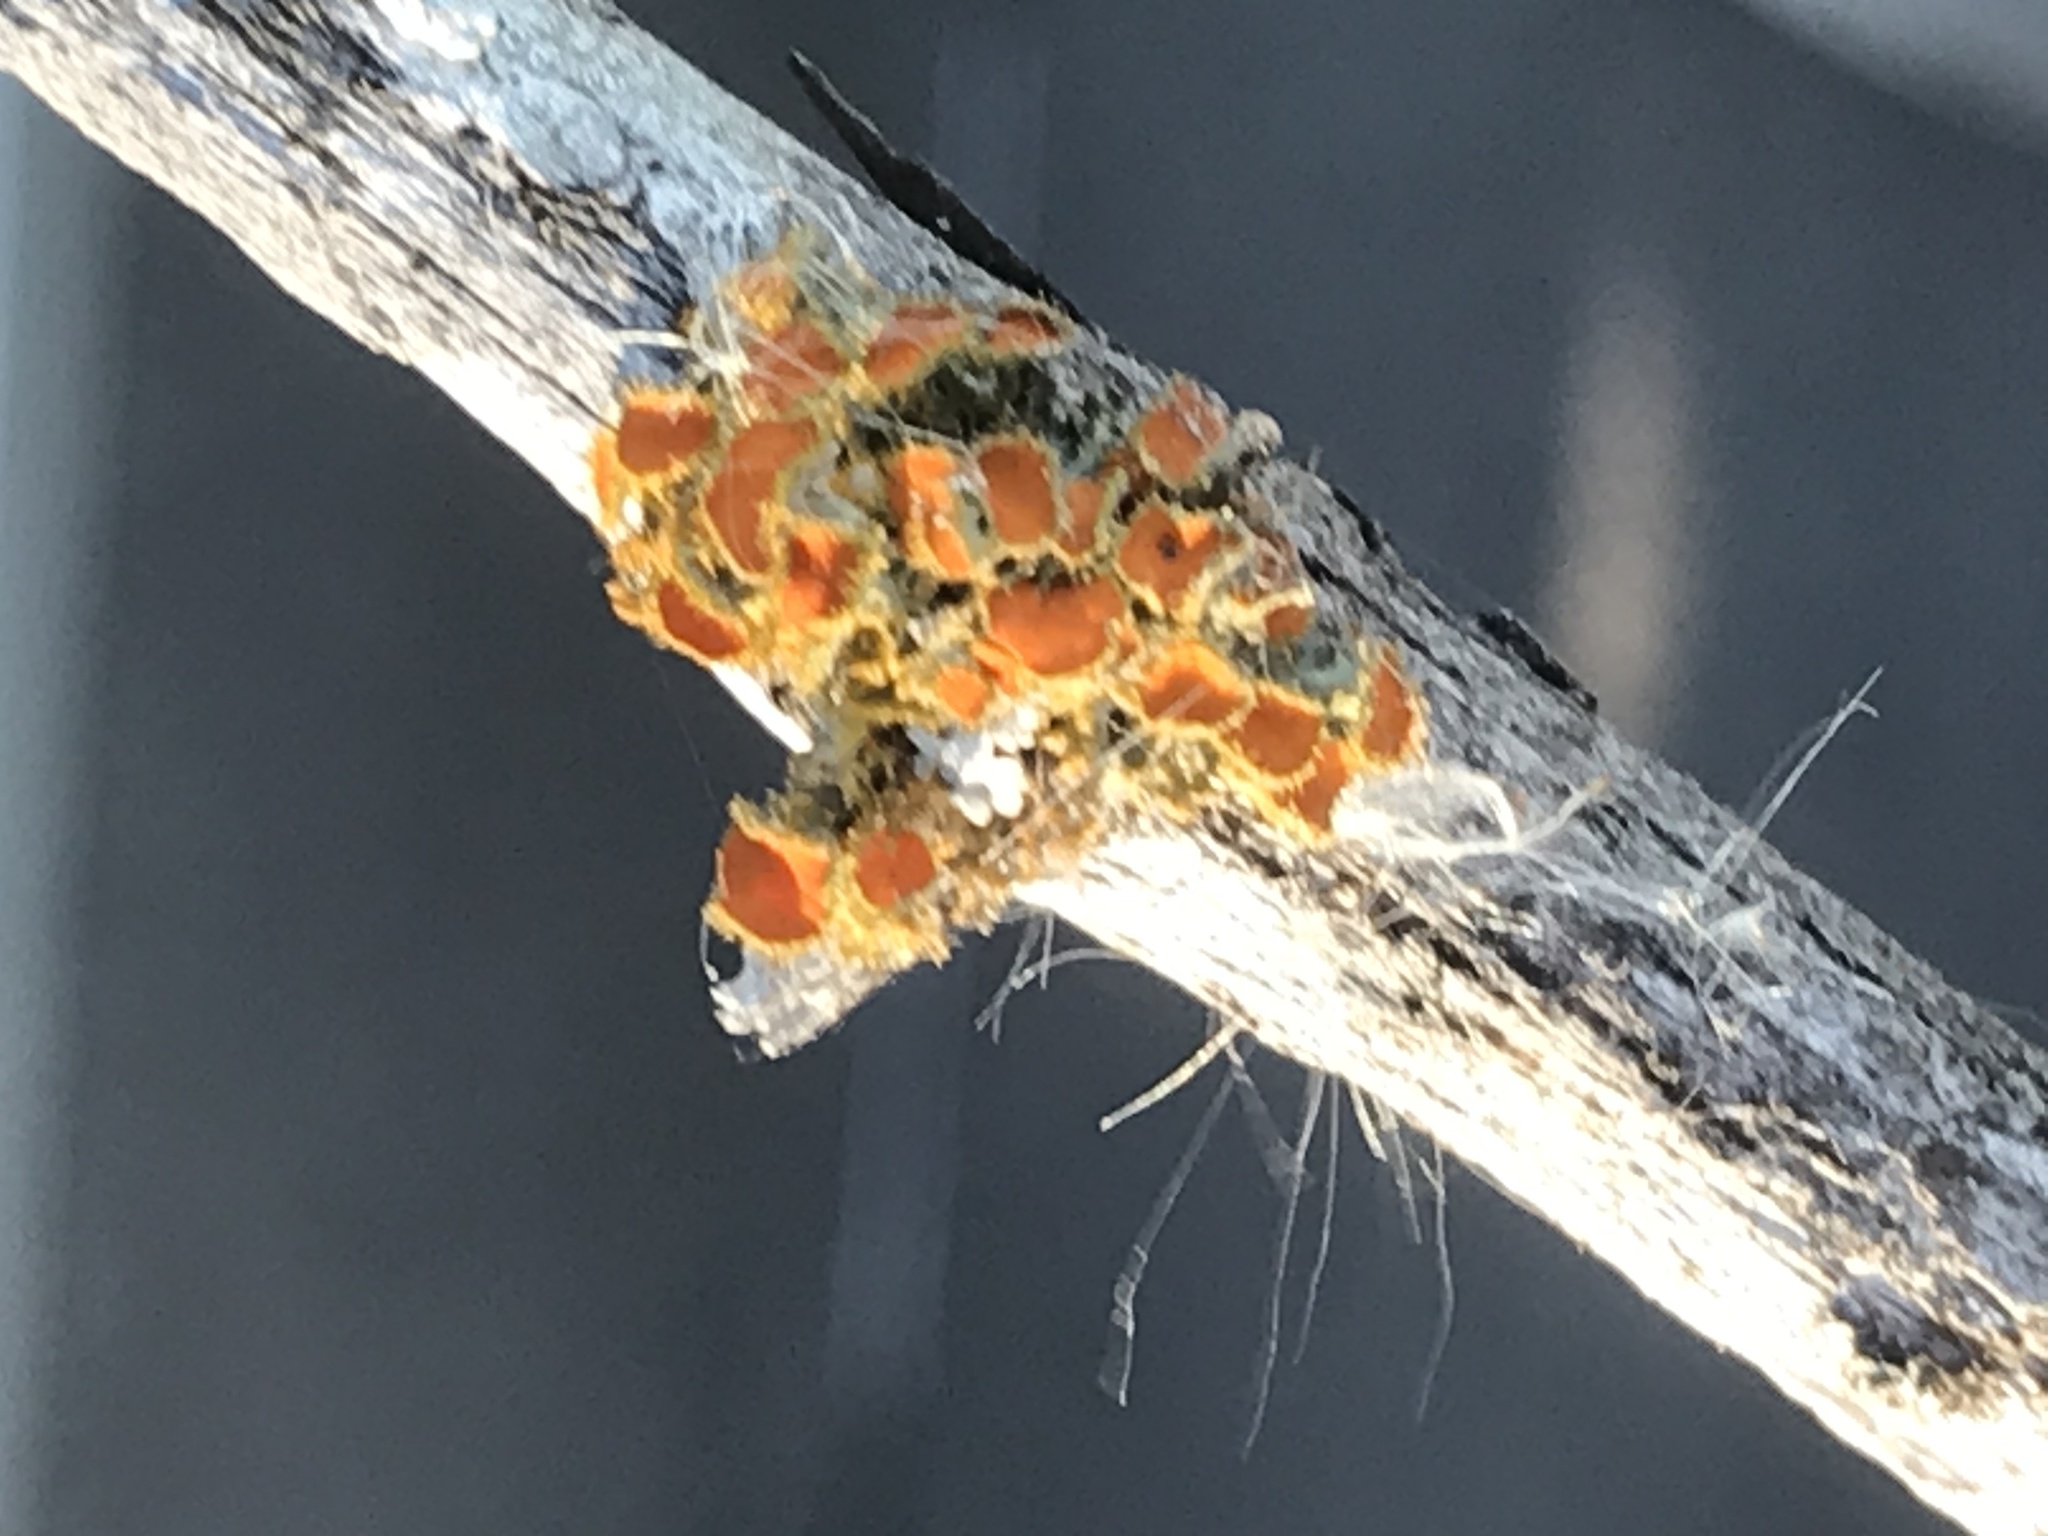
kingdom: Fungi
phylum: Ascomycota
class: Lecanoromycetes
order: Teloschistales
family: Teloschistaceae
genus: Niorma
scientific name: Niorma chrysophthalma
